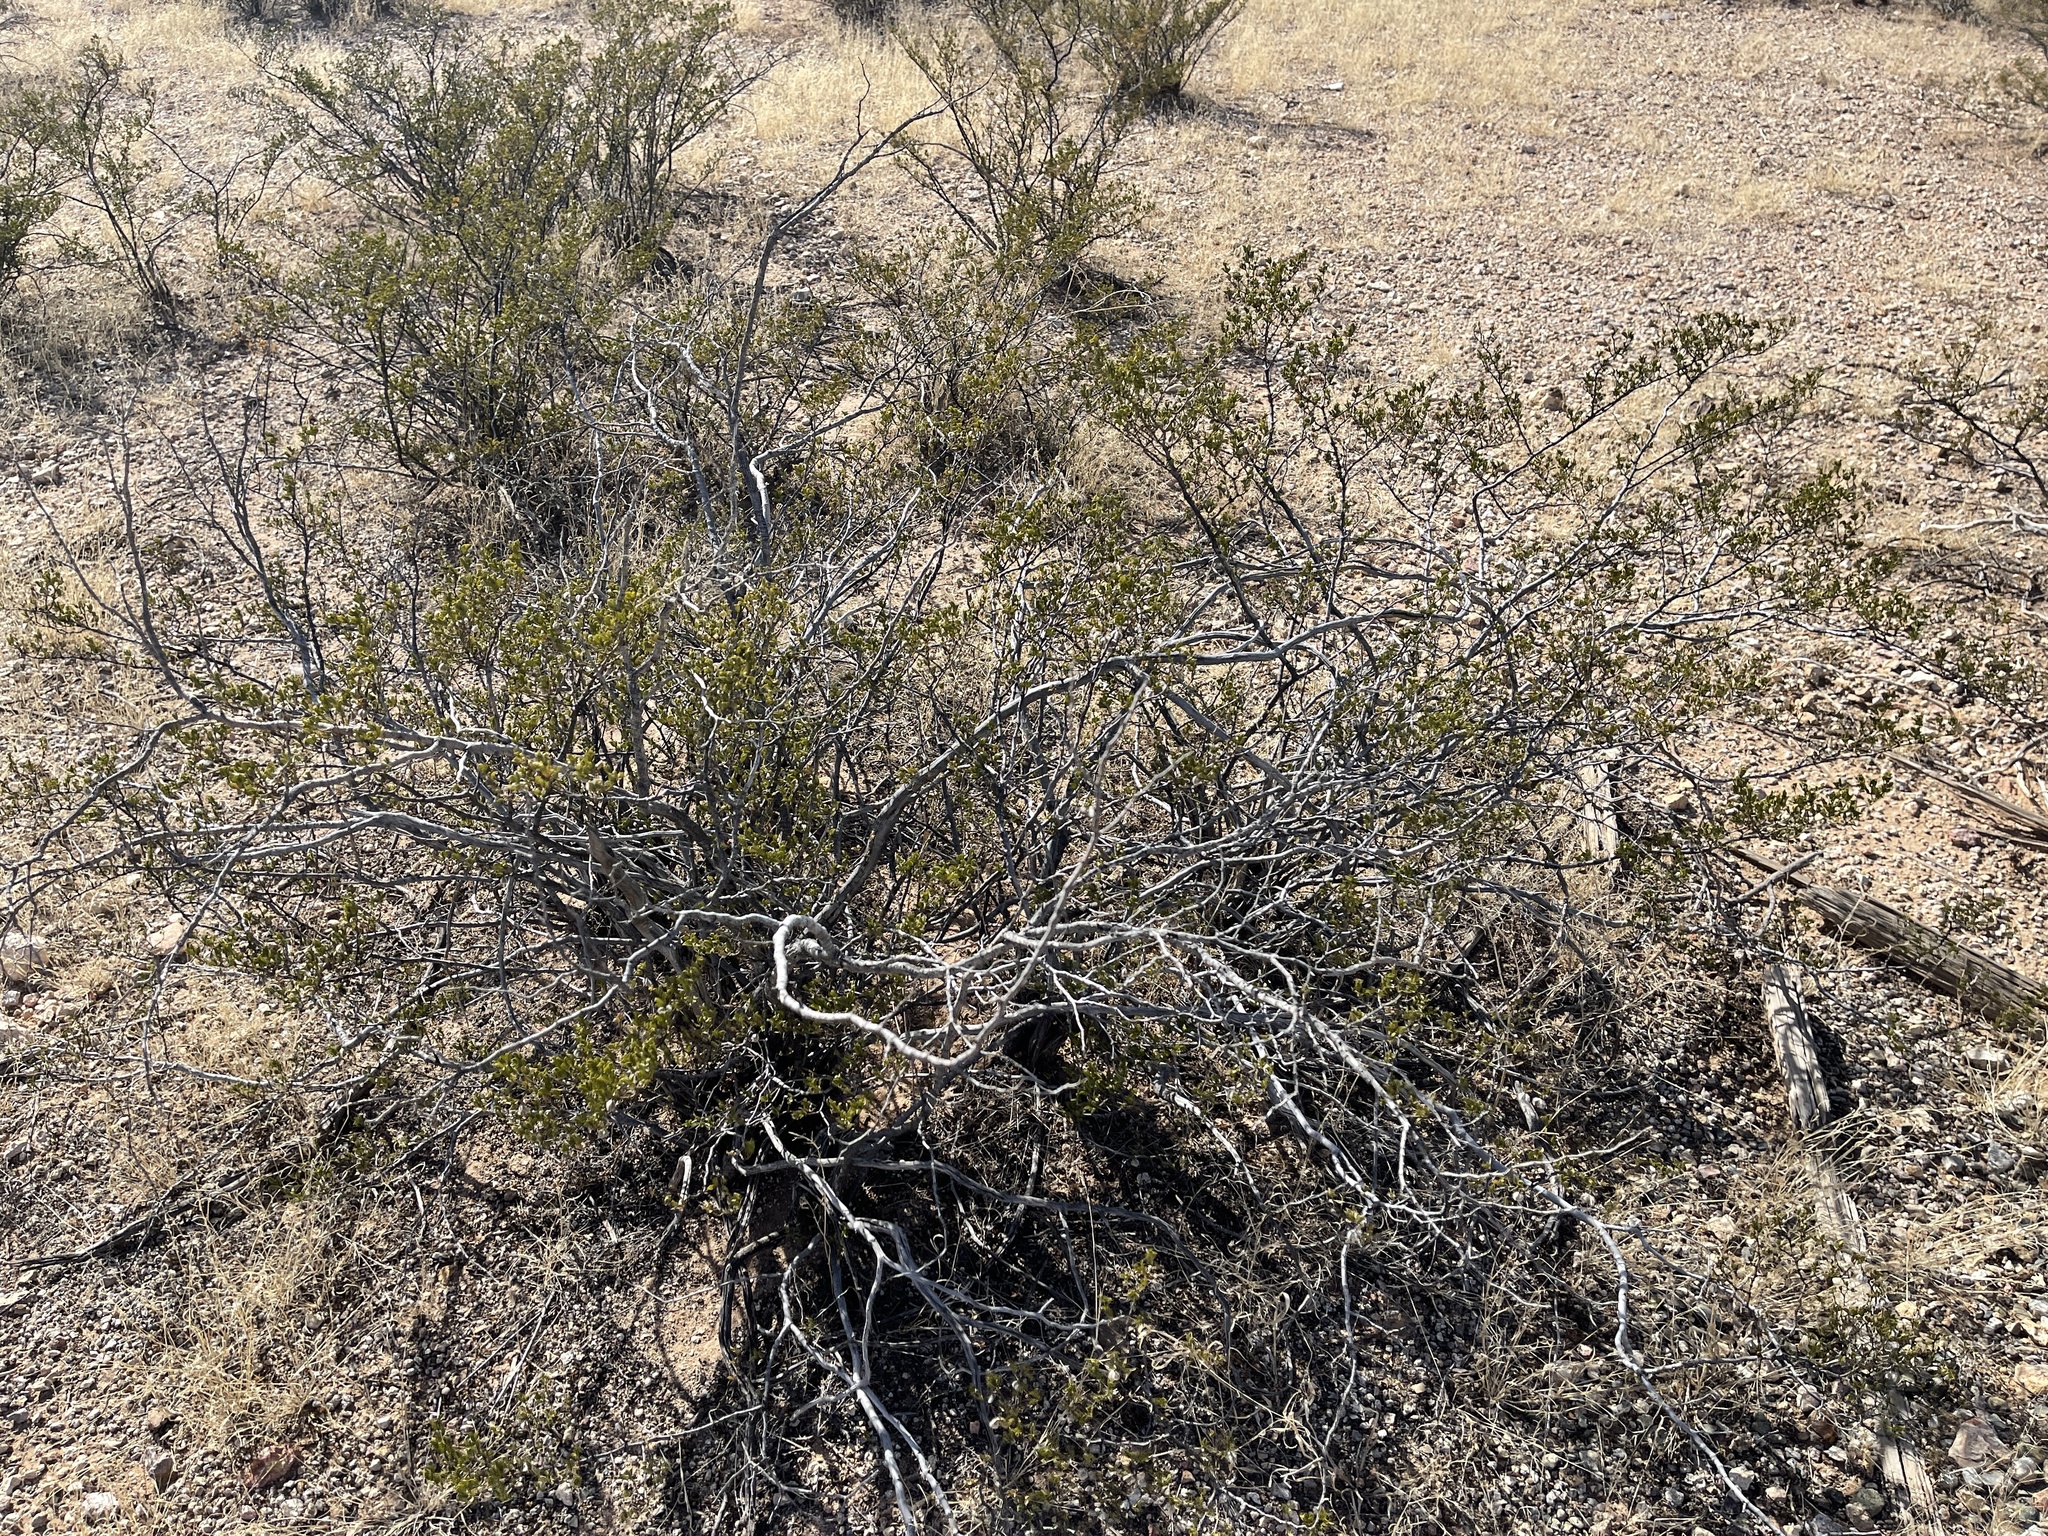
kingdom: Plantae
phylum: Tracheophyta
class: Magnoliopsida
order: Zygophyllales
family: Zygophyllaceae
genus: Larrea
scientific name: Larrea tridentata
